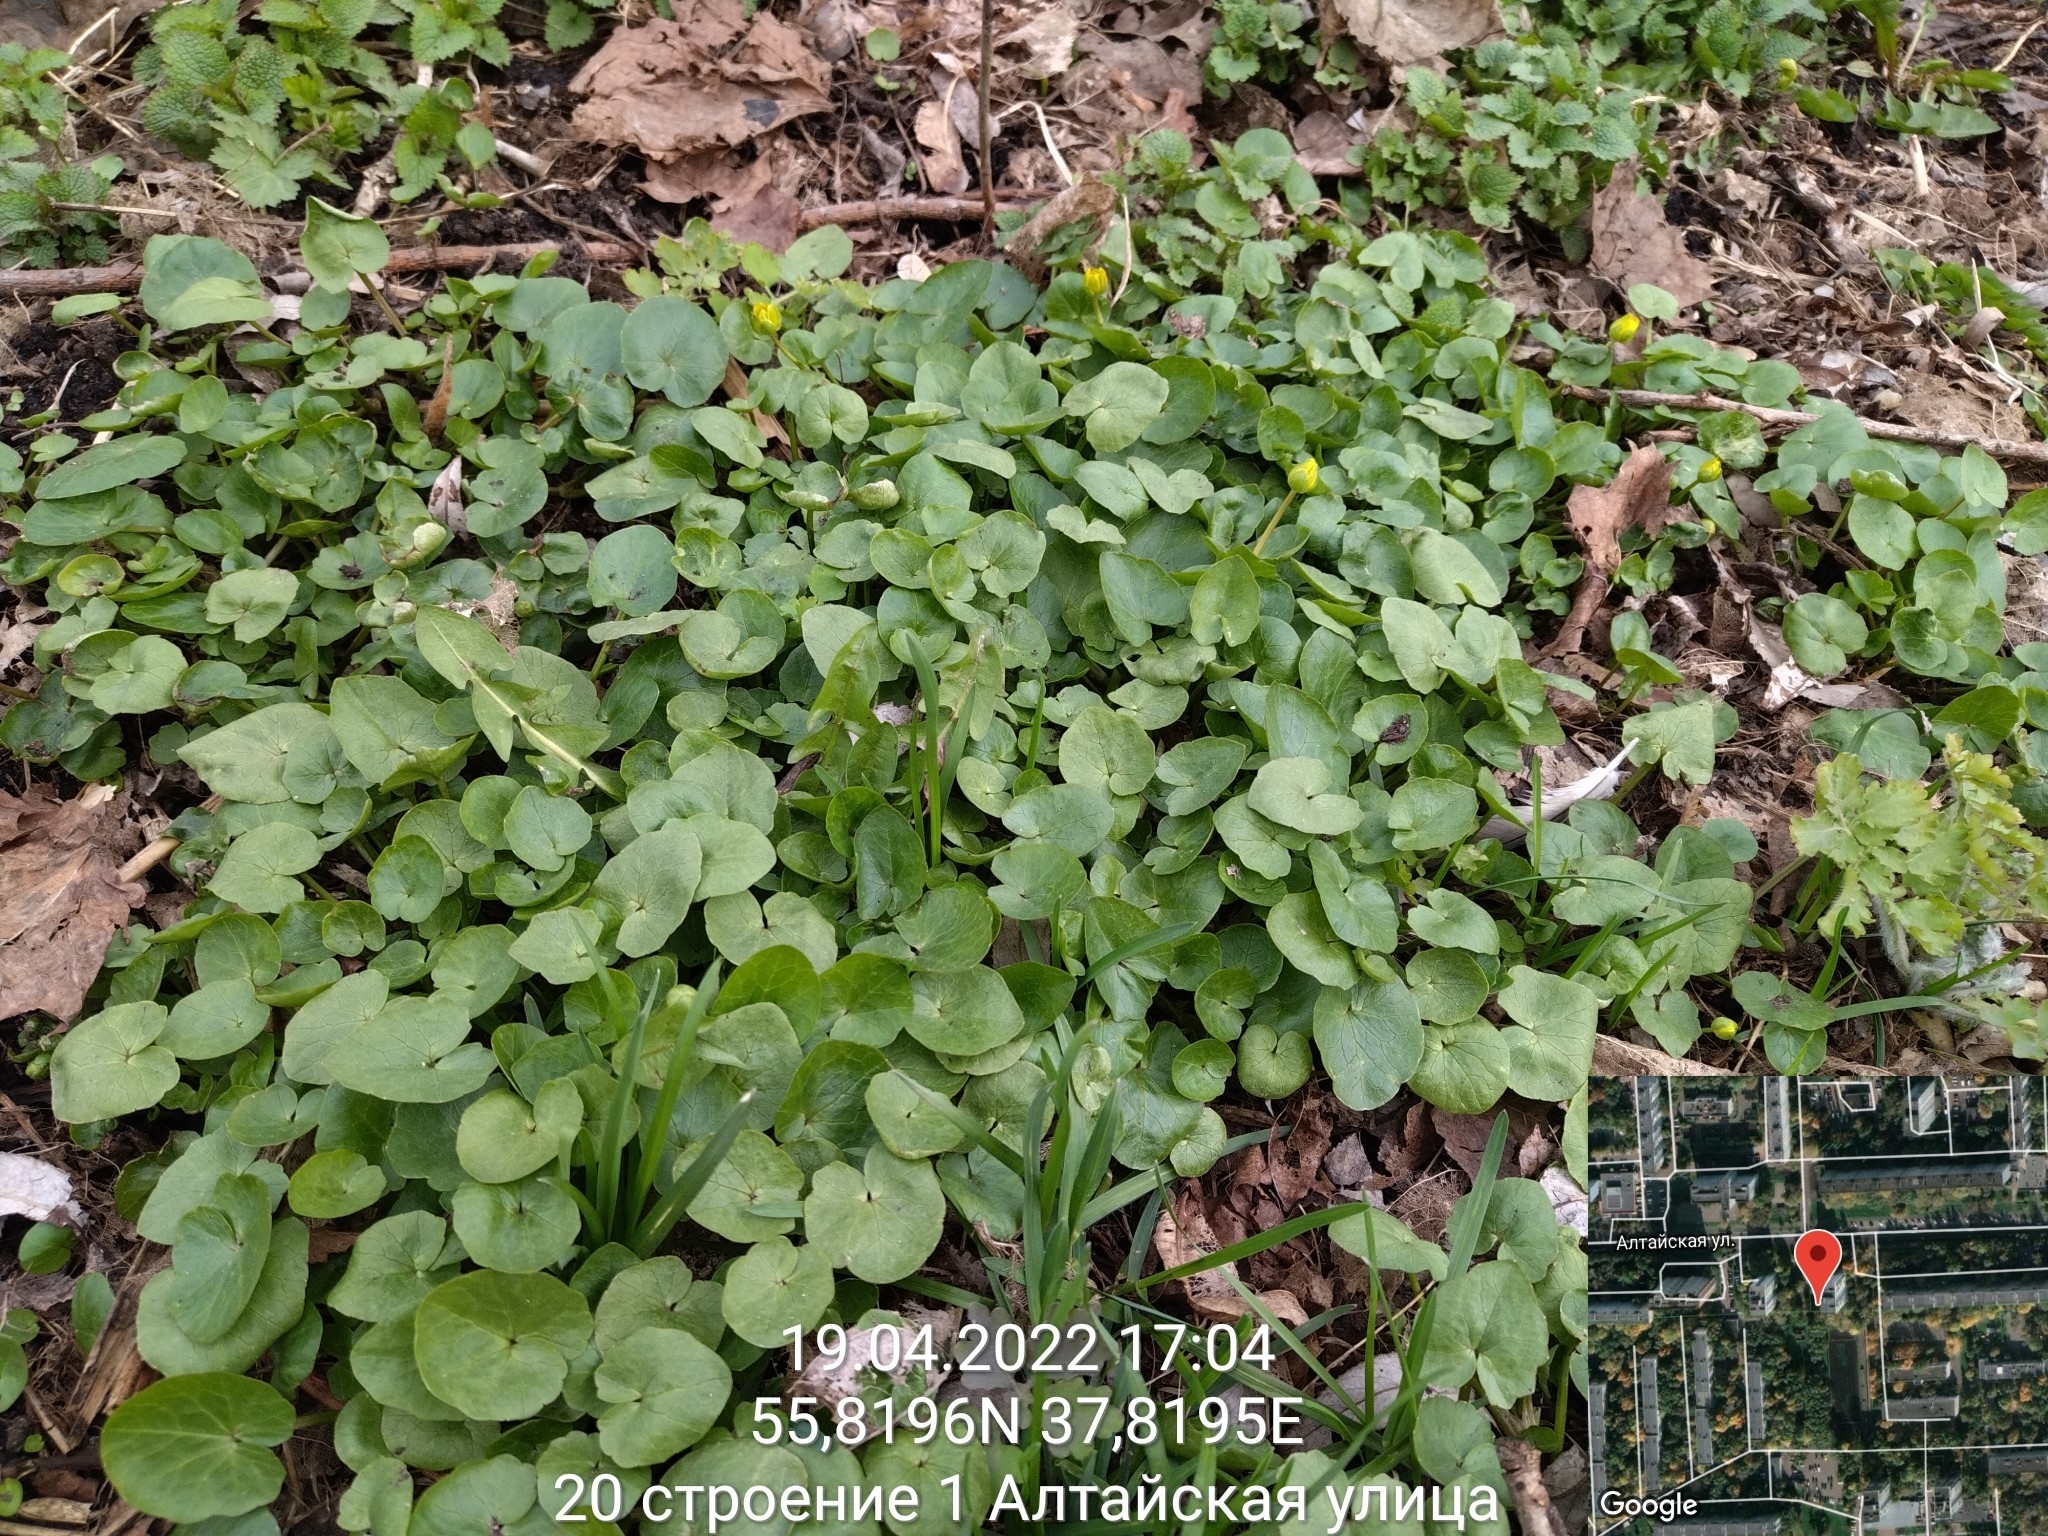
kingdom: Plantae
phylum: Tracheophyta
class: Magnoliopsida
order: Ranunculales
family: Ranunculaceae
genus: Ficaria
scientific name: Ficaria verna
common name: Lesser celandine
